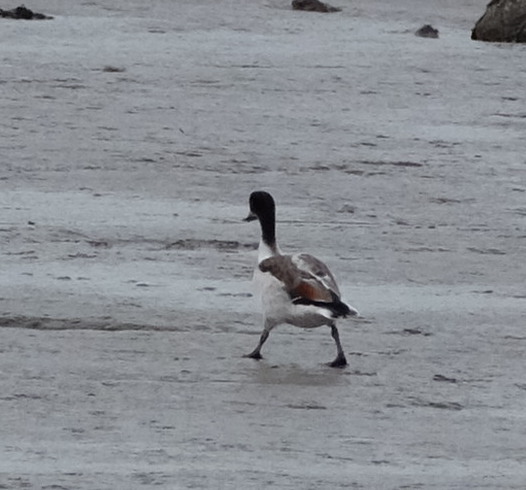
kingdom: Animalia
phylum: Chordata
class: Aves
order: Anseriformes
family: Anatidae
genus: Tadorna
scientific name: Tadorna tadorna
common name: Common shelduck
